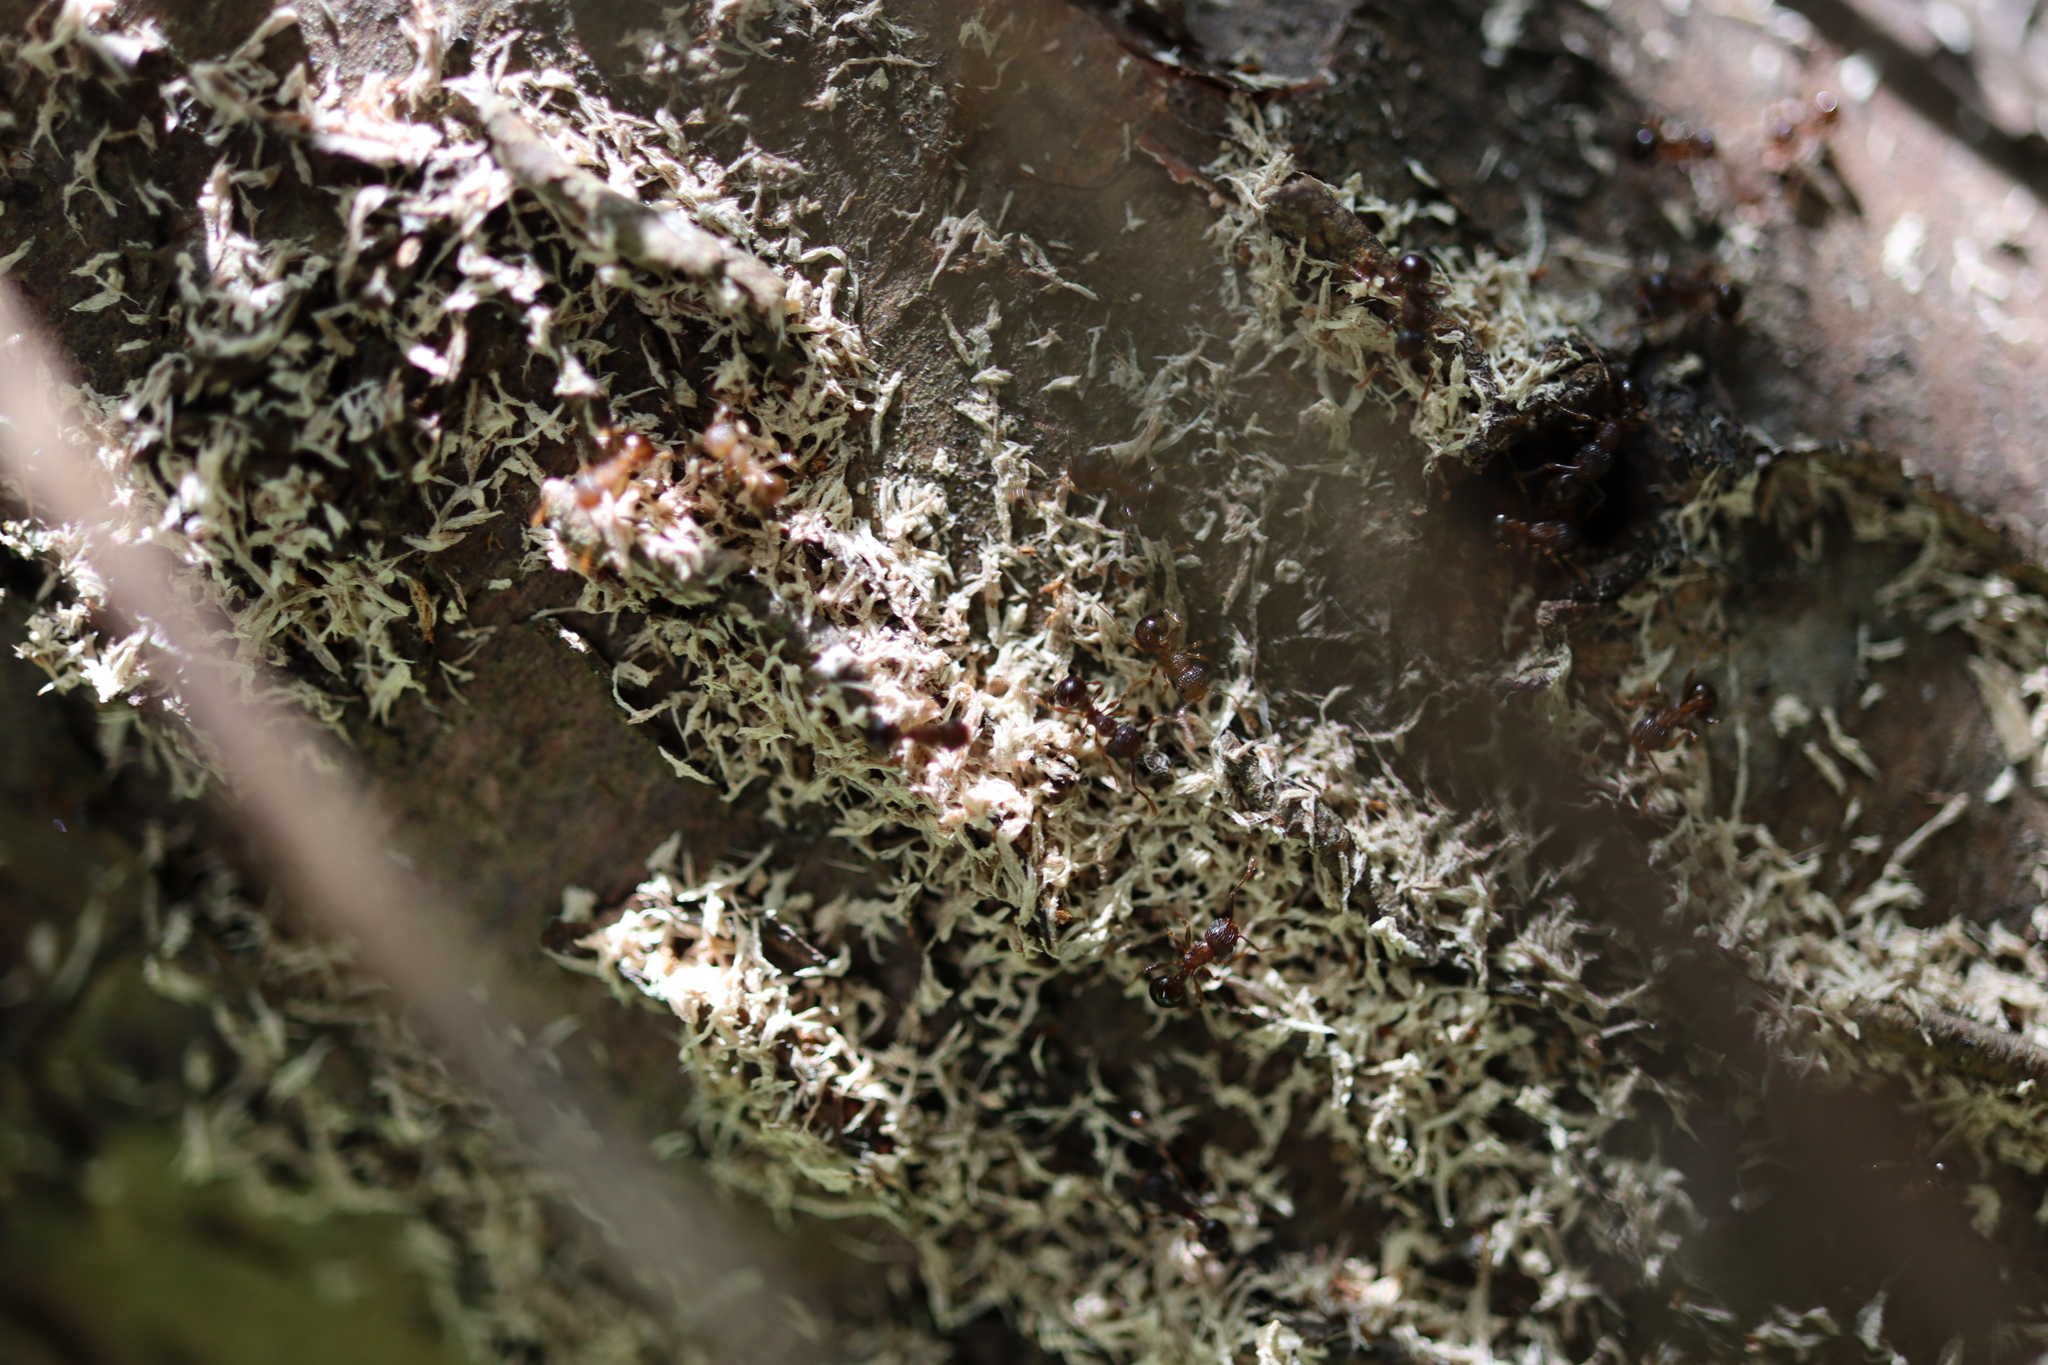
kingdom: Animalia
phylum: Arthropoda
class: Insecta
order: Hymenoptera
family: Formicidae
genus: Pristomyrmex
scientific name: Pristomyrmex punctatus
